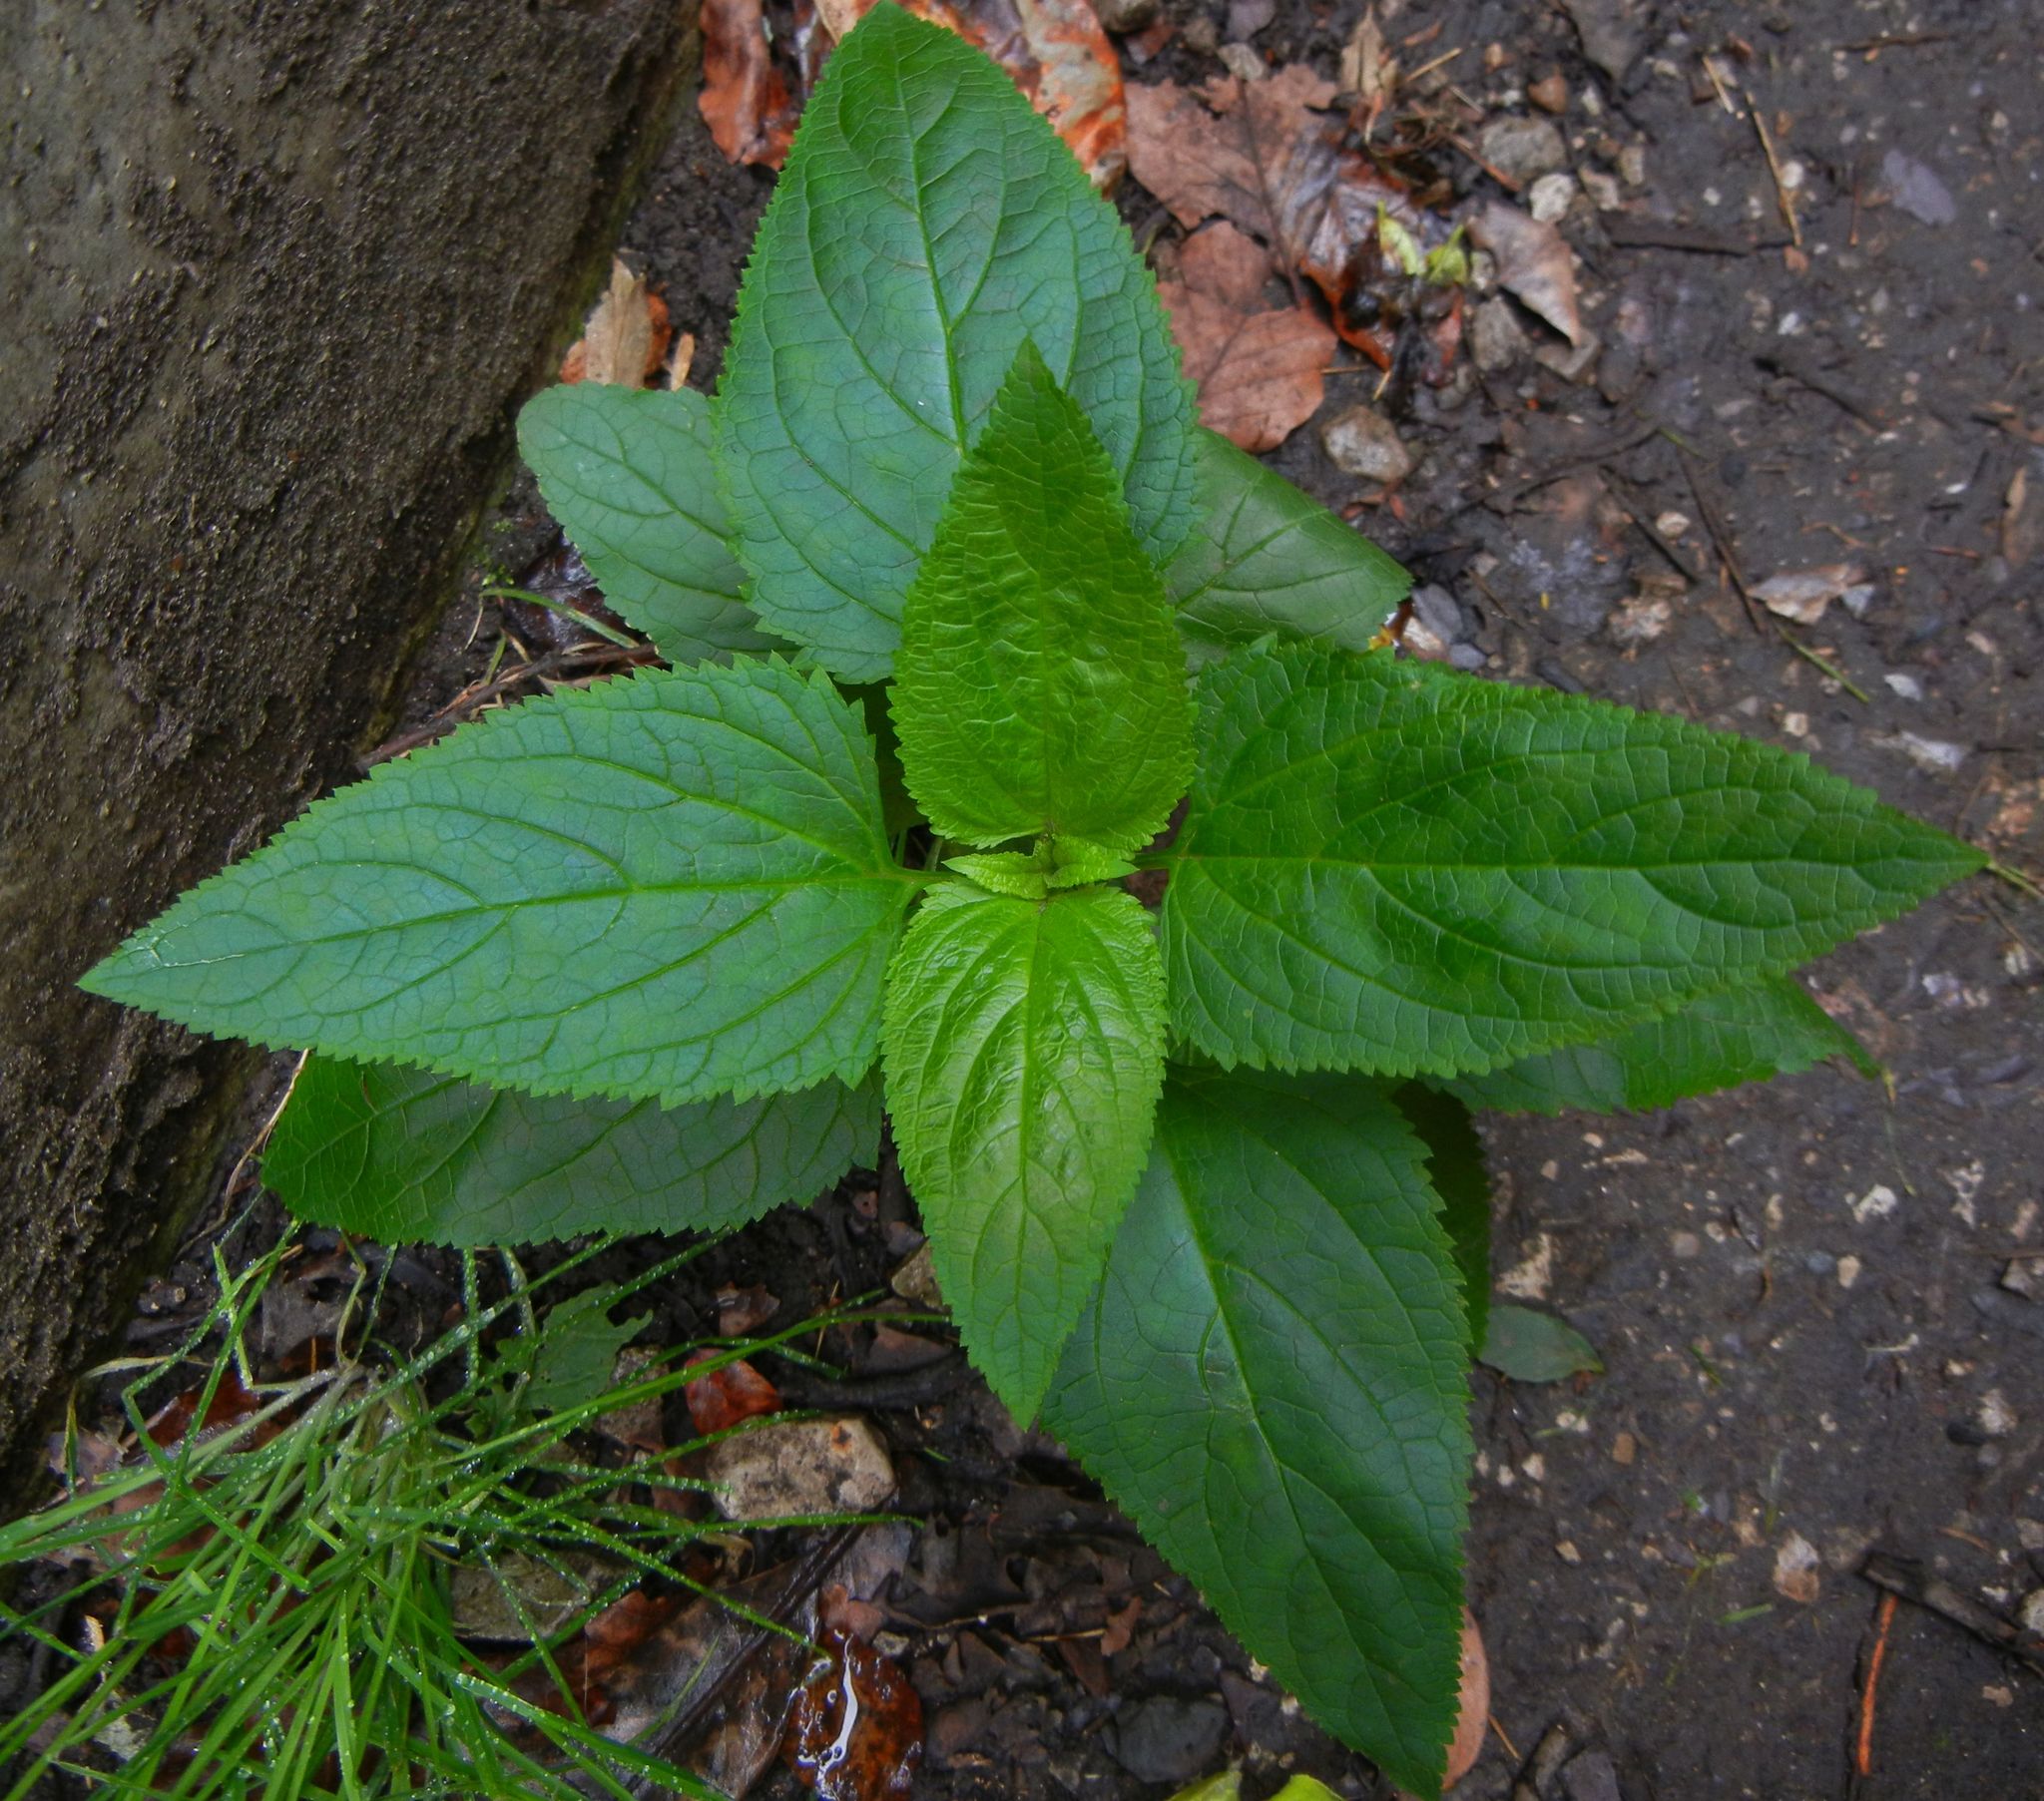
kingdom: Plantae
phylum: Tracheophyta
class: Magnoliopsida
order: Lamiales
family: Scrophulariaceae
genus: Scrophularia
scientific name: Scrophularia nodosa
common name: Common figwort
